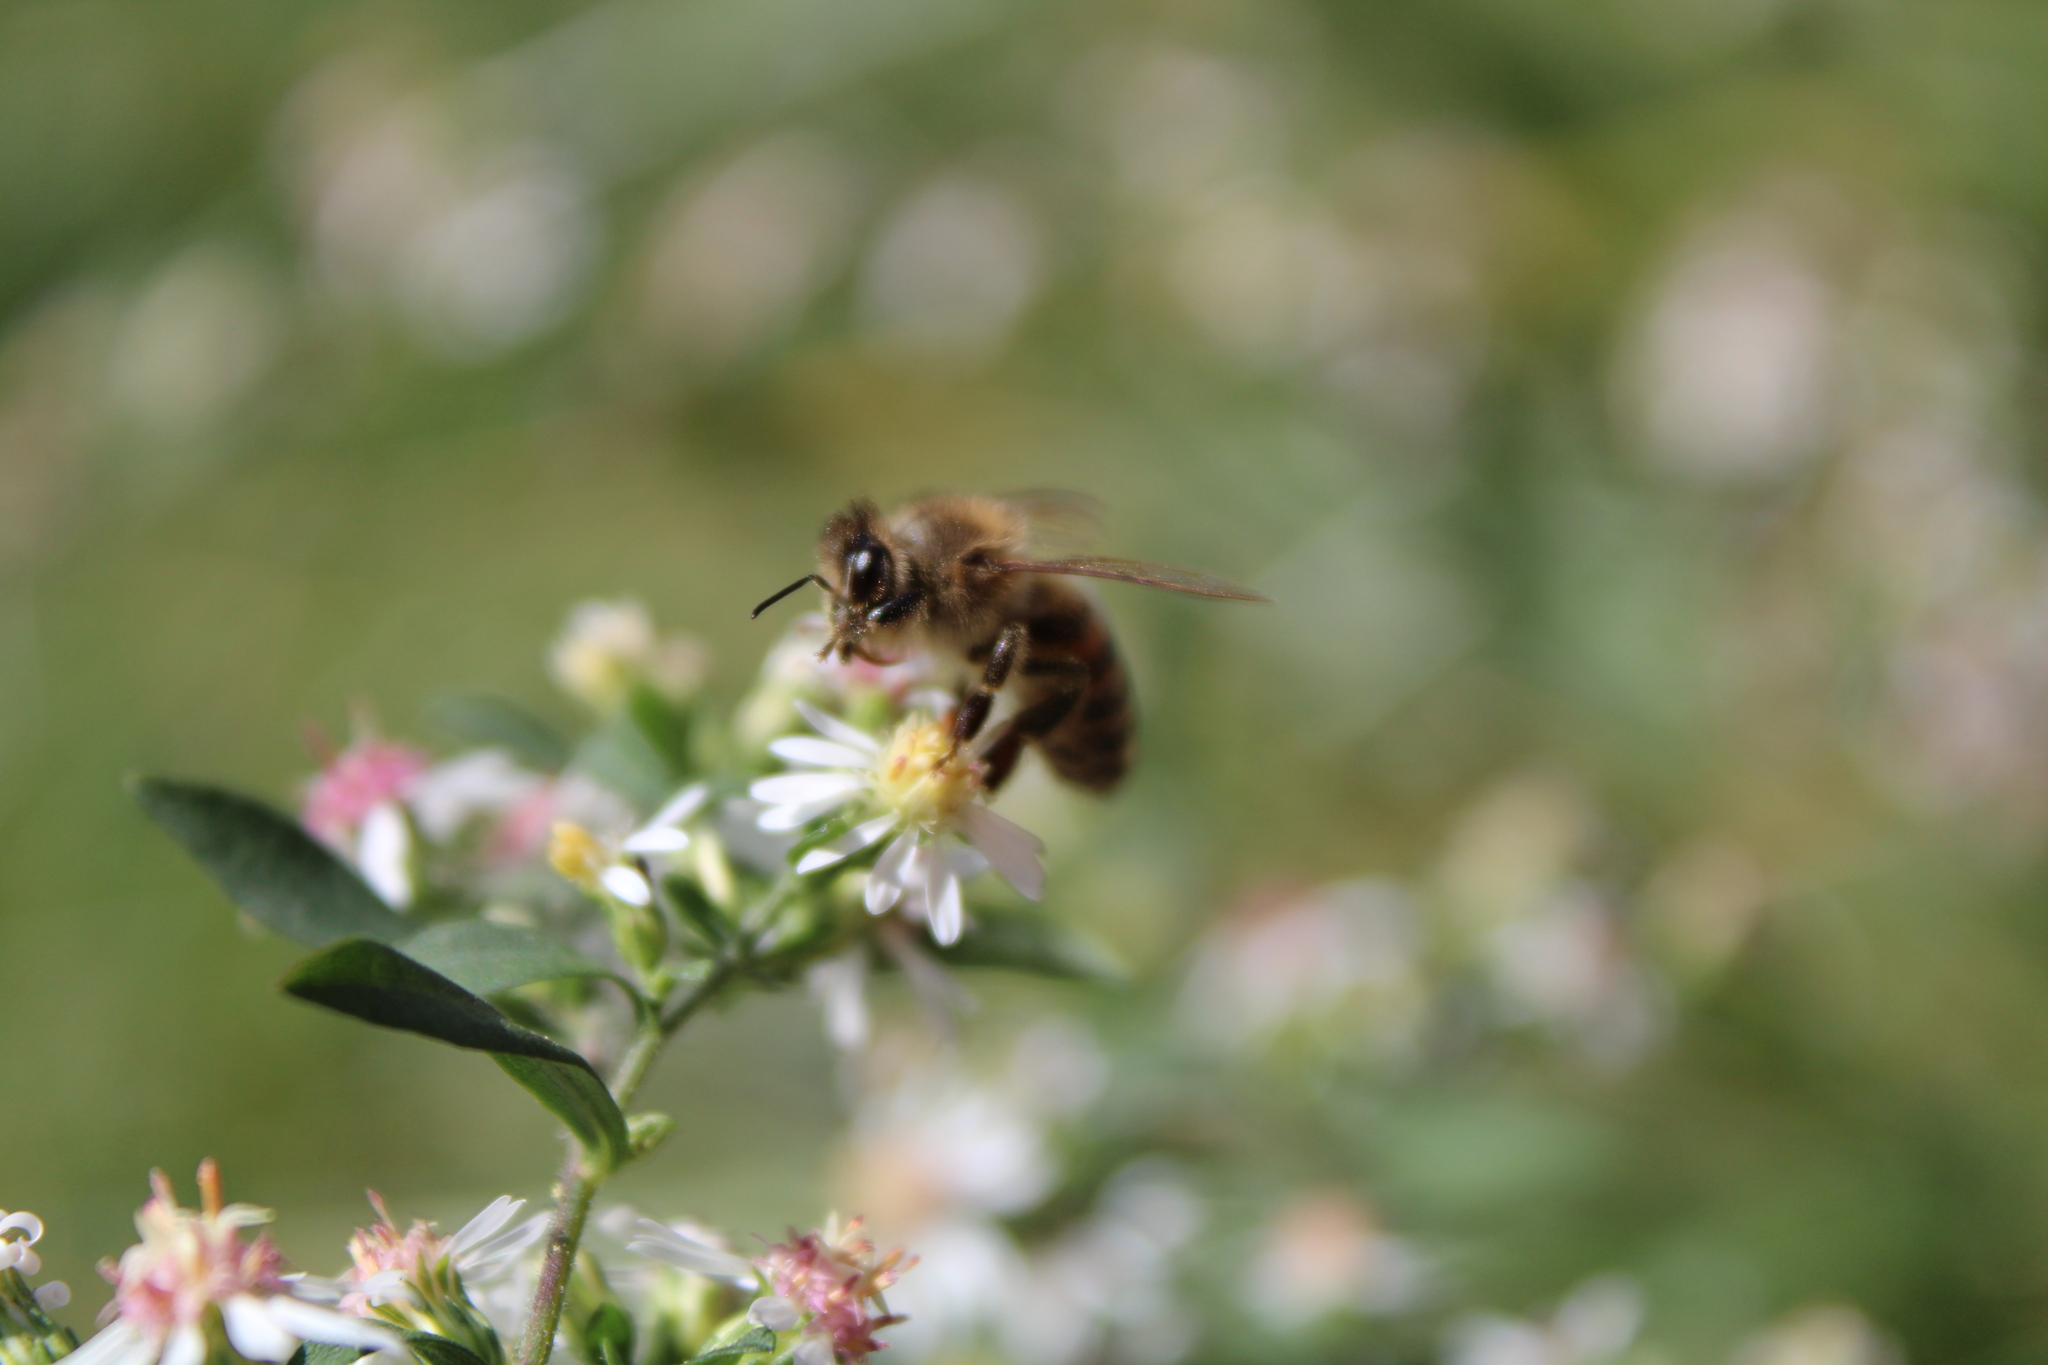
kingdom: Animalia
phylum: Arthropoda
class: Insecta
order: Hymenoptera
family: Apidae
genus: Apis
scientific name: Apis mellifera
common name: Honey bee
